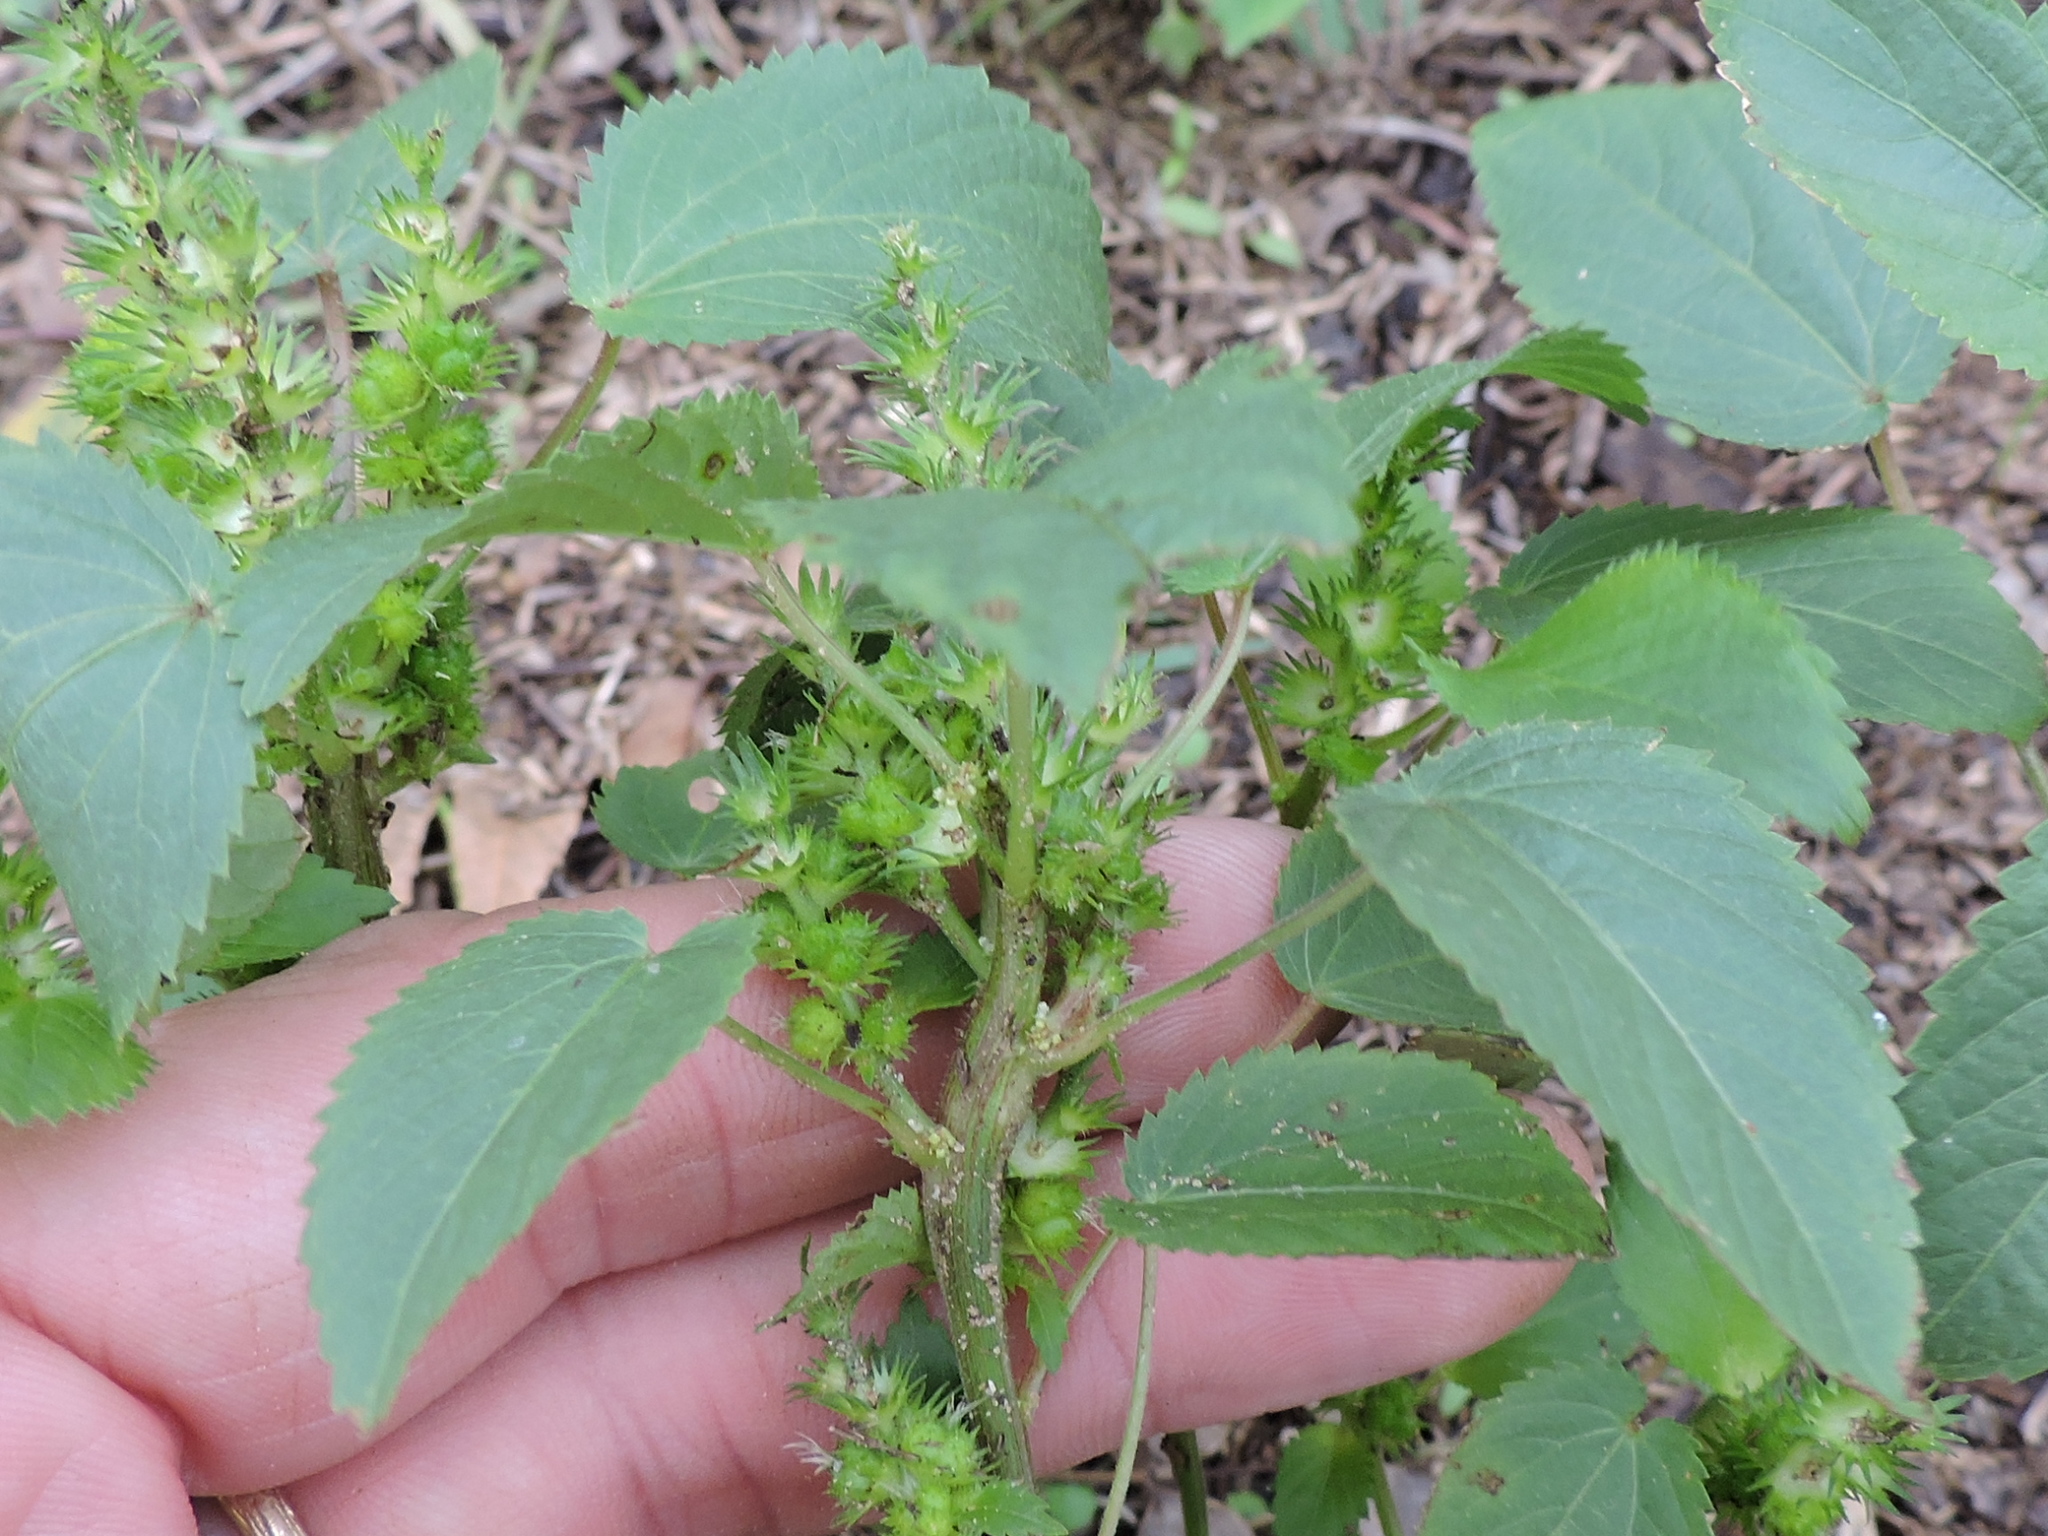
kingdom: Plantae
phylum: Tracheophyta
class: Magnoliopsida
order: Malpighiales
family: Euphorbiaceae
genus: Acalypha
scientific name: Acalypha ostryifolia
